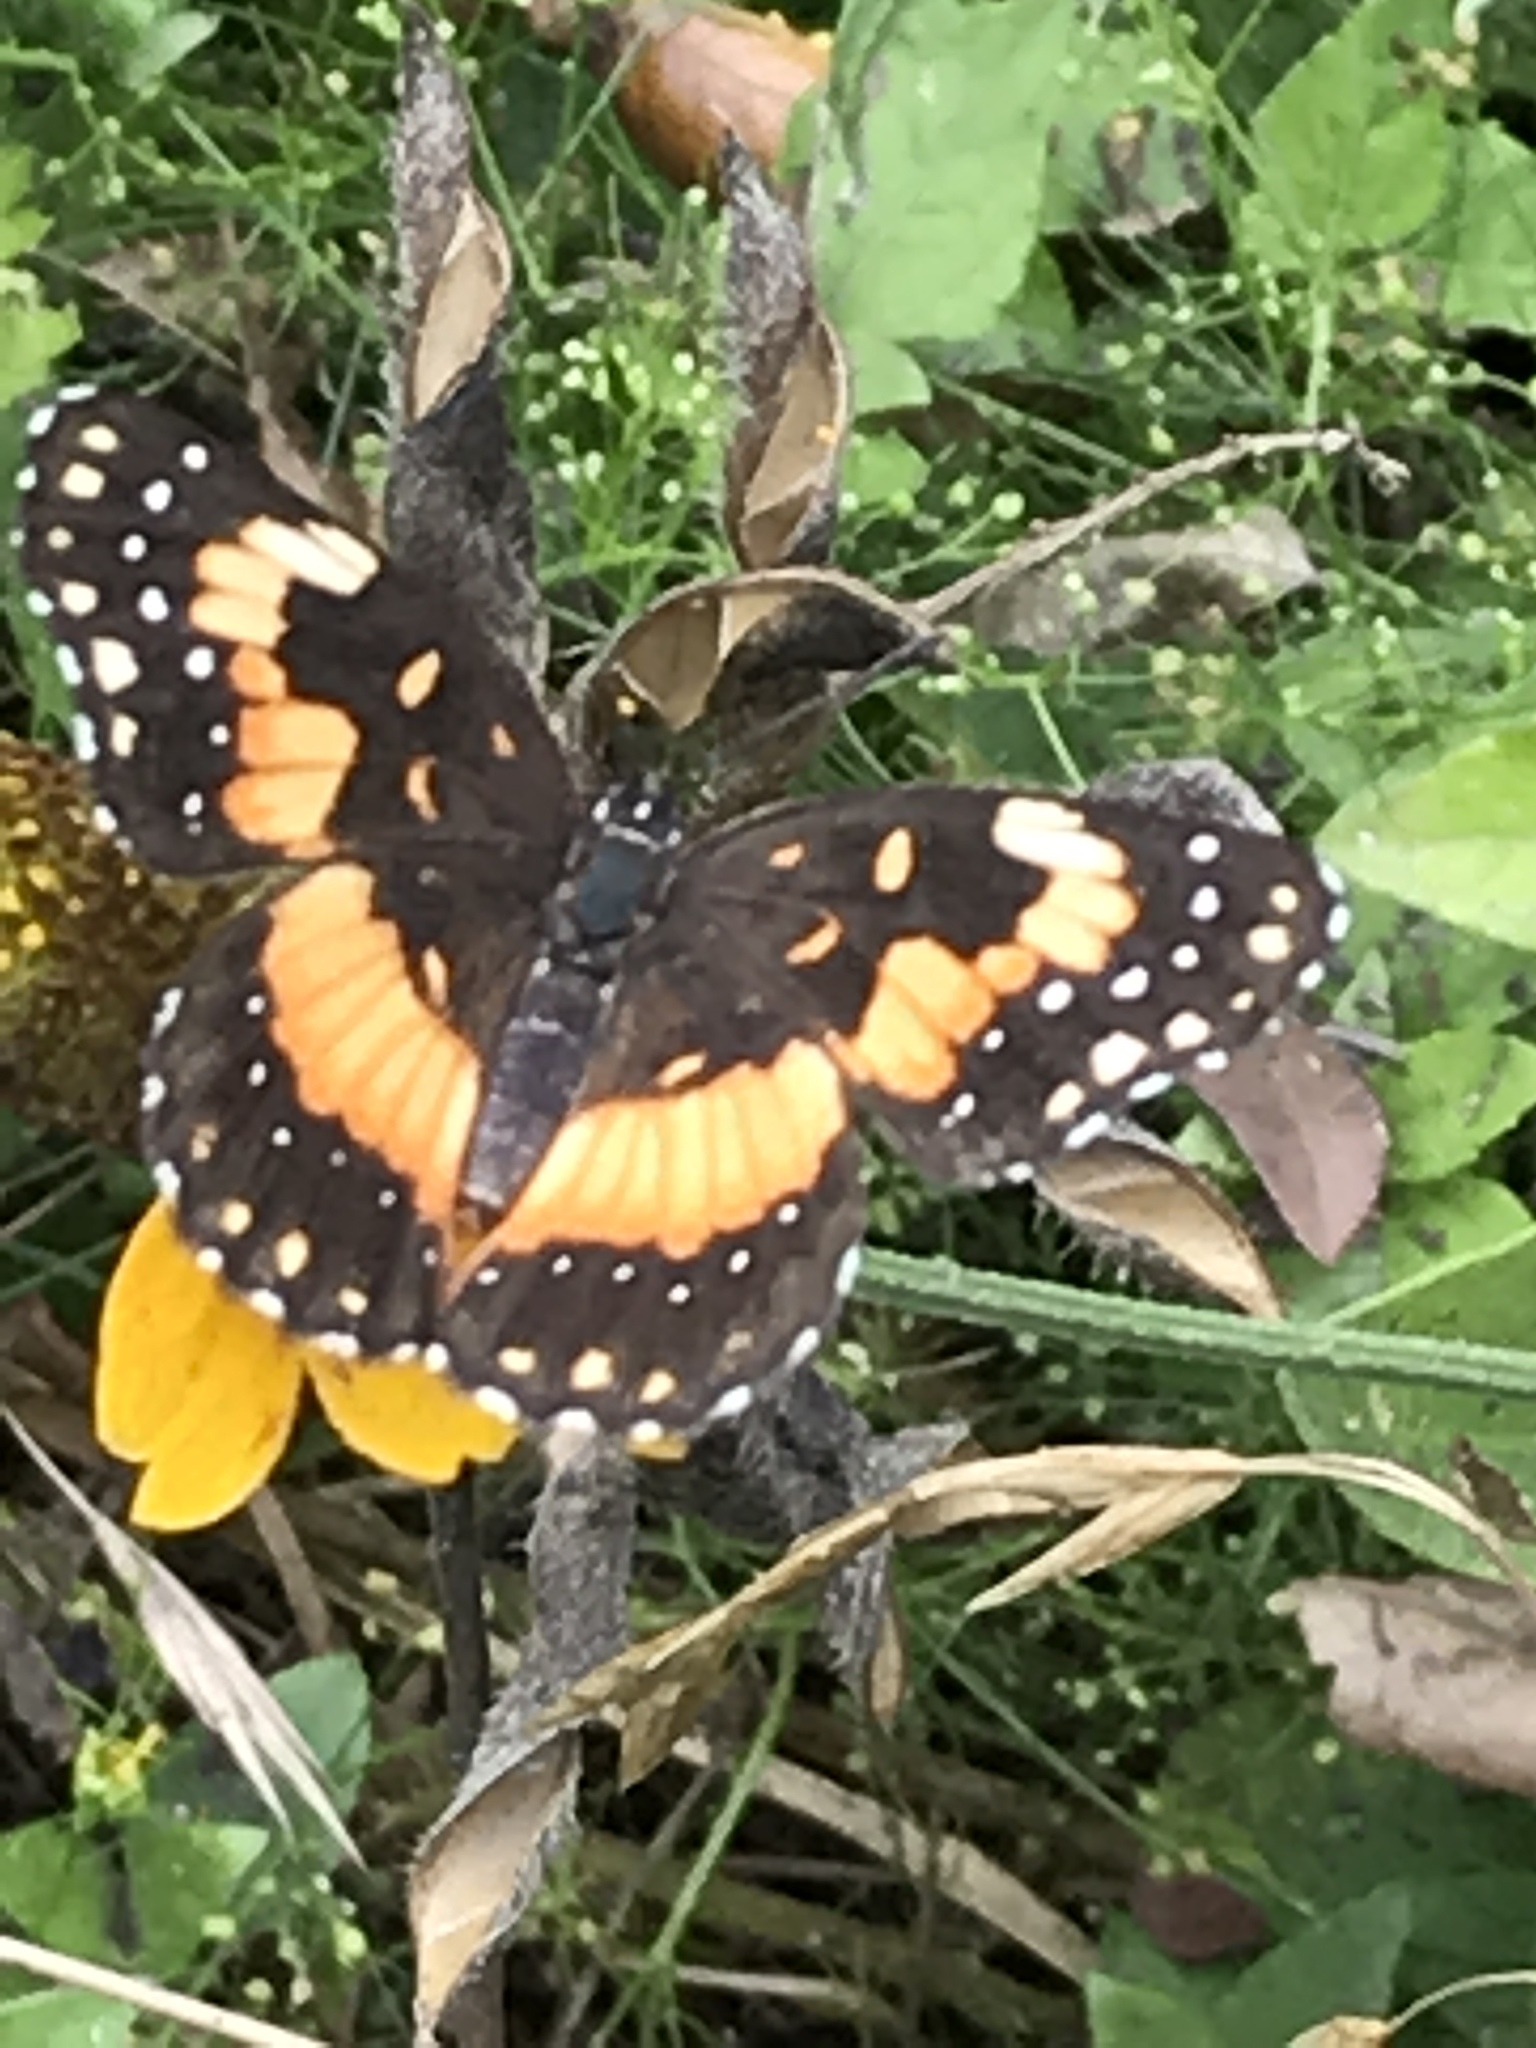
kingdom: Animalia
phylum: Arthropoda
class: Insecta
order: Lepidoptera
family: Nymphalidae
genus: Chlosyne
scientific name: Chlosyne lacinia
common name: Bordered patch
